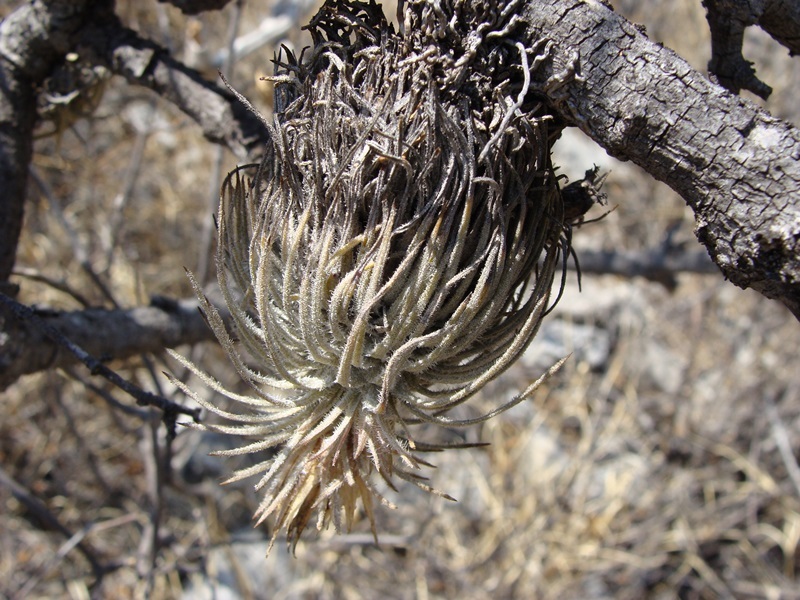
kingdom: Plantae
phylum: Tracheophyta
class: Liliopsida
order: Poales
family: Bromeliaceae
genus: Tillandsia
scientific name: Tillandsia atroviridipetala
